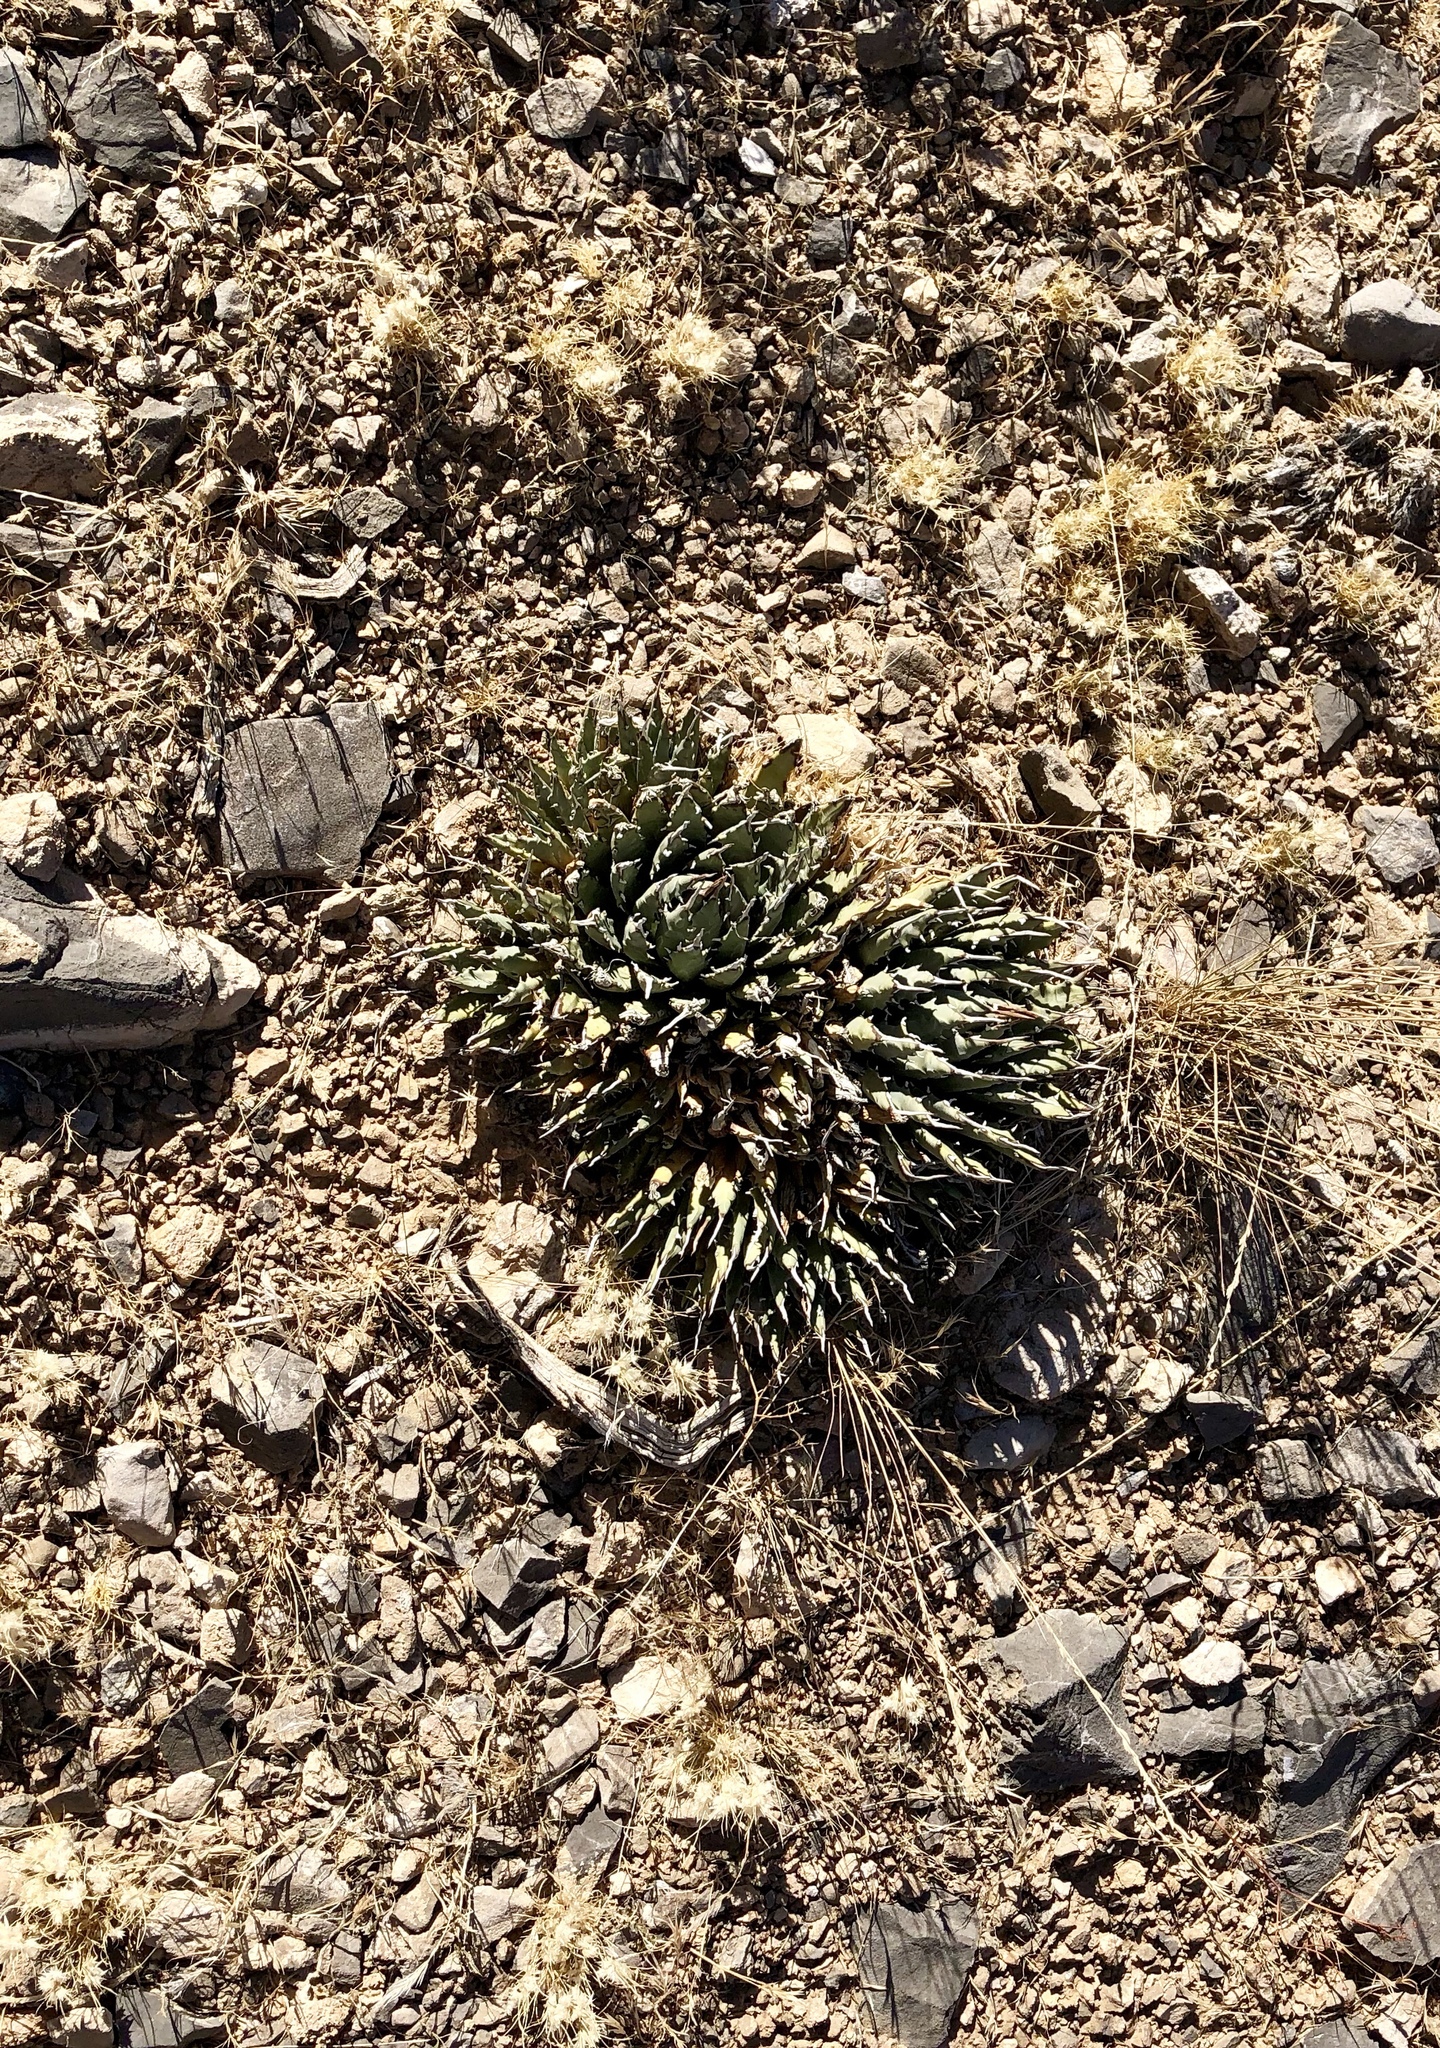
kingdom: Plantae
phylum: Tracheophyta
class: Liliopsida
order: Asparagales
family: Asparagaceae
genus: Agave
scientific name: Agave utahensis
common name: Utah agave
